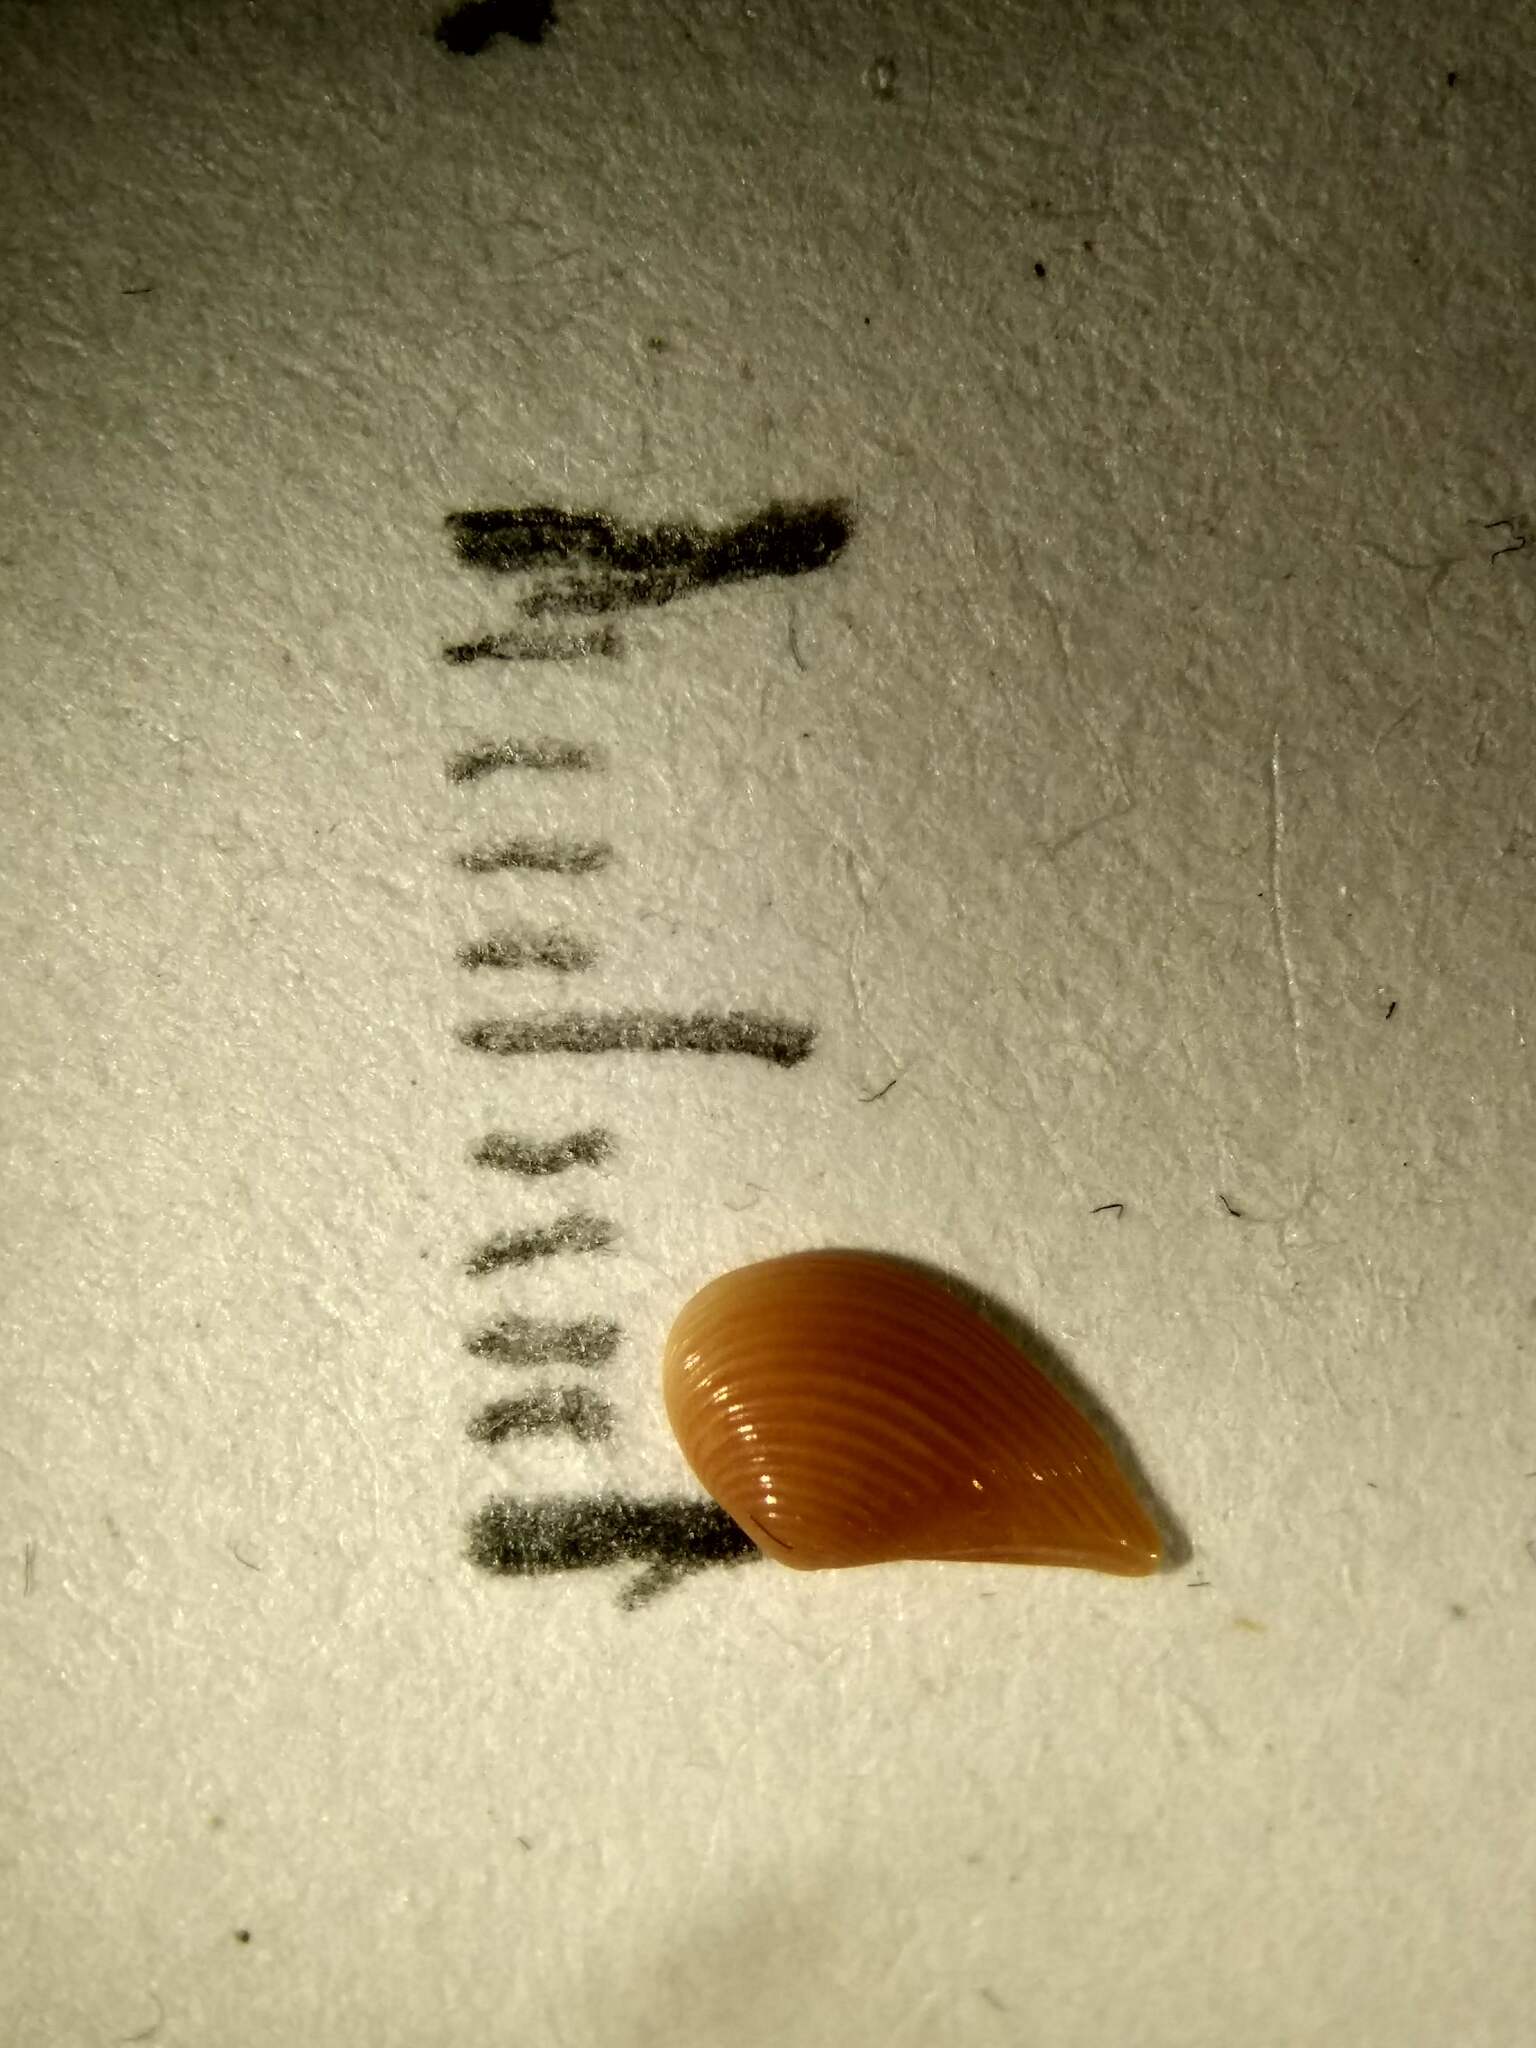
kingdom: Animalia
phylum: Mollusca
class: Bivalvia
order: Nuculanida
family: Nuculanidae
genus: Nuculana
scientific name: Nuculana acuta
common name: Pointed nut clam
